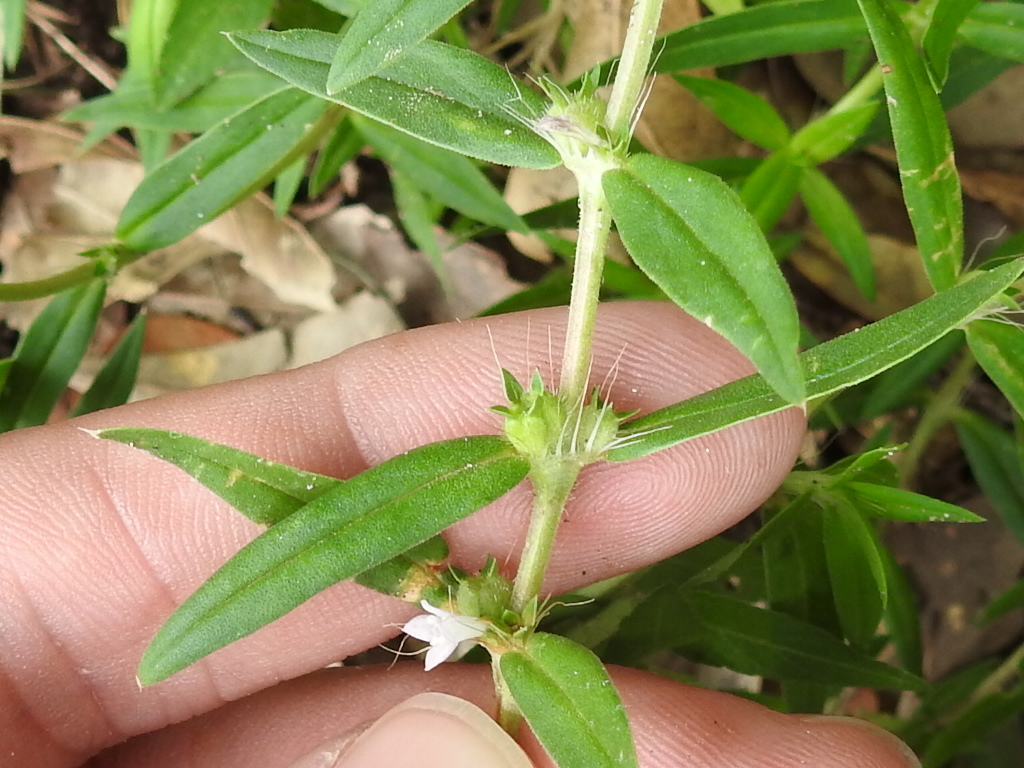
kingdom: Plantae
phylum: Tracheophyta
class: Magnoliopsida
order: Gentianales
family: Rubiaceae
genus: Hexasepalum
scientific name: Hexasepalum teres
